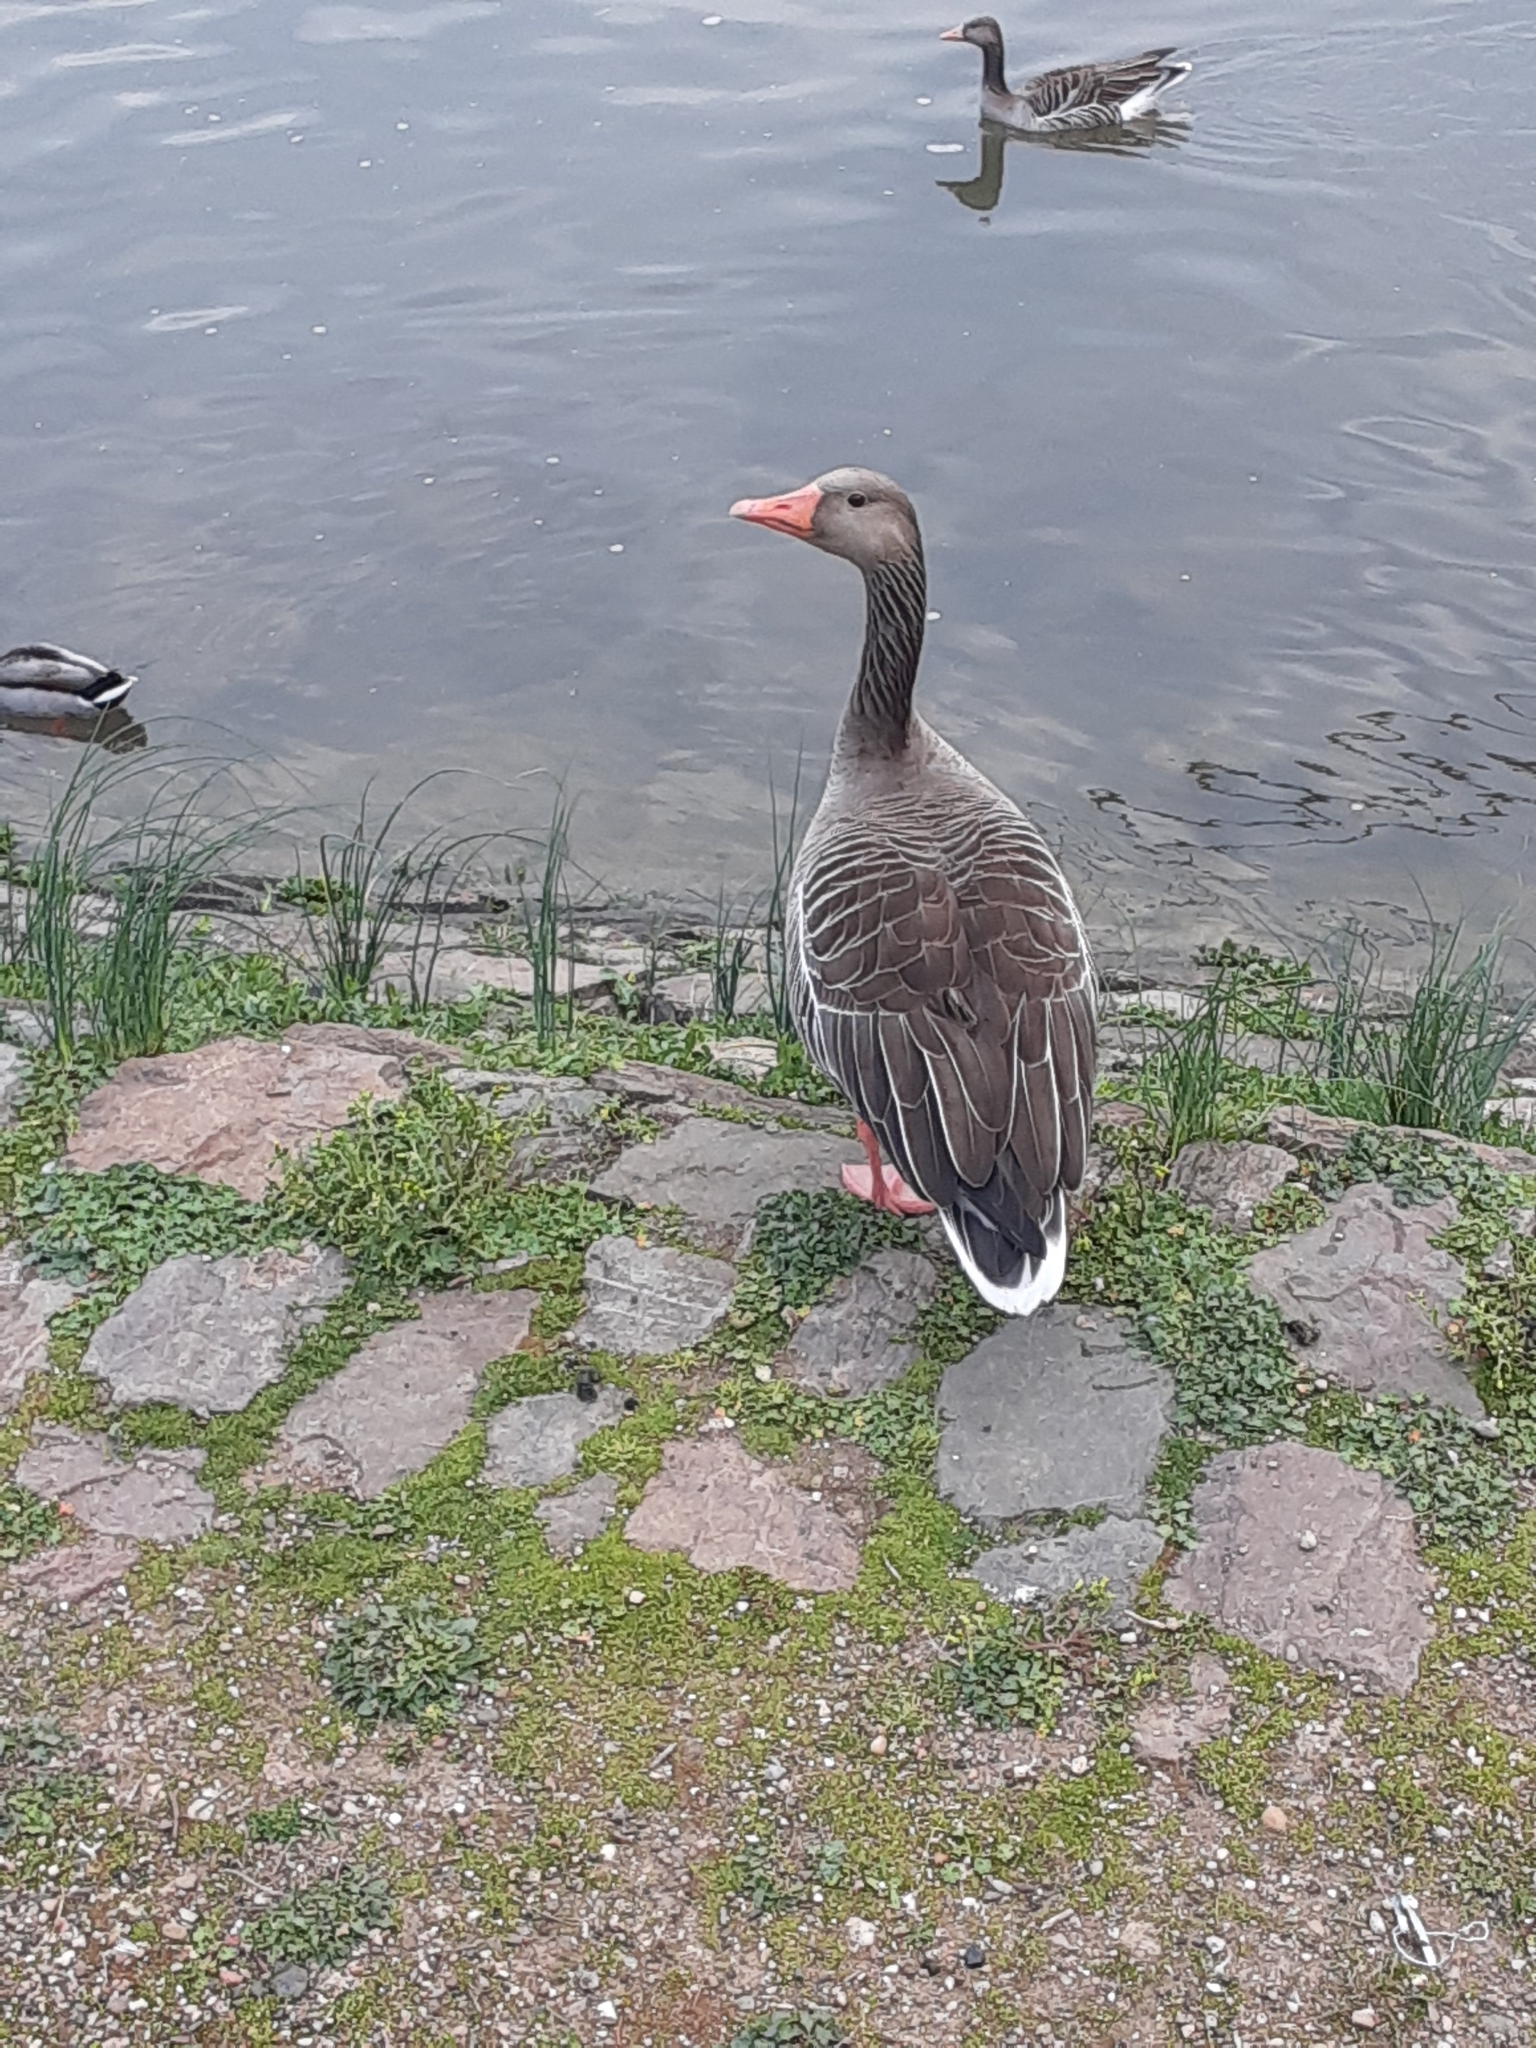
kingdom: Animalia
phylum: Chordata
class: Aves
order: Anseriformes
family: Anatidae
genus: Anser
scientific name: Anser anser
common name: Greylag goose
